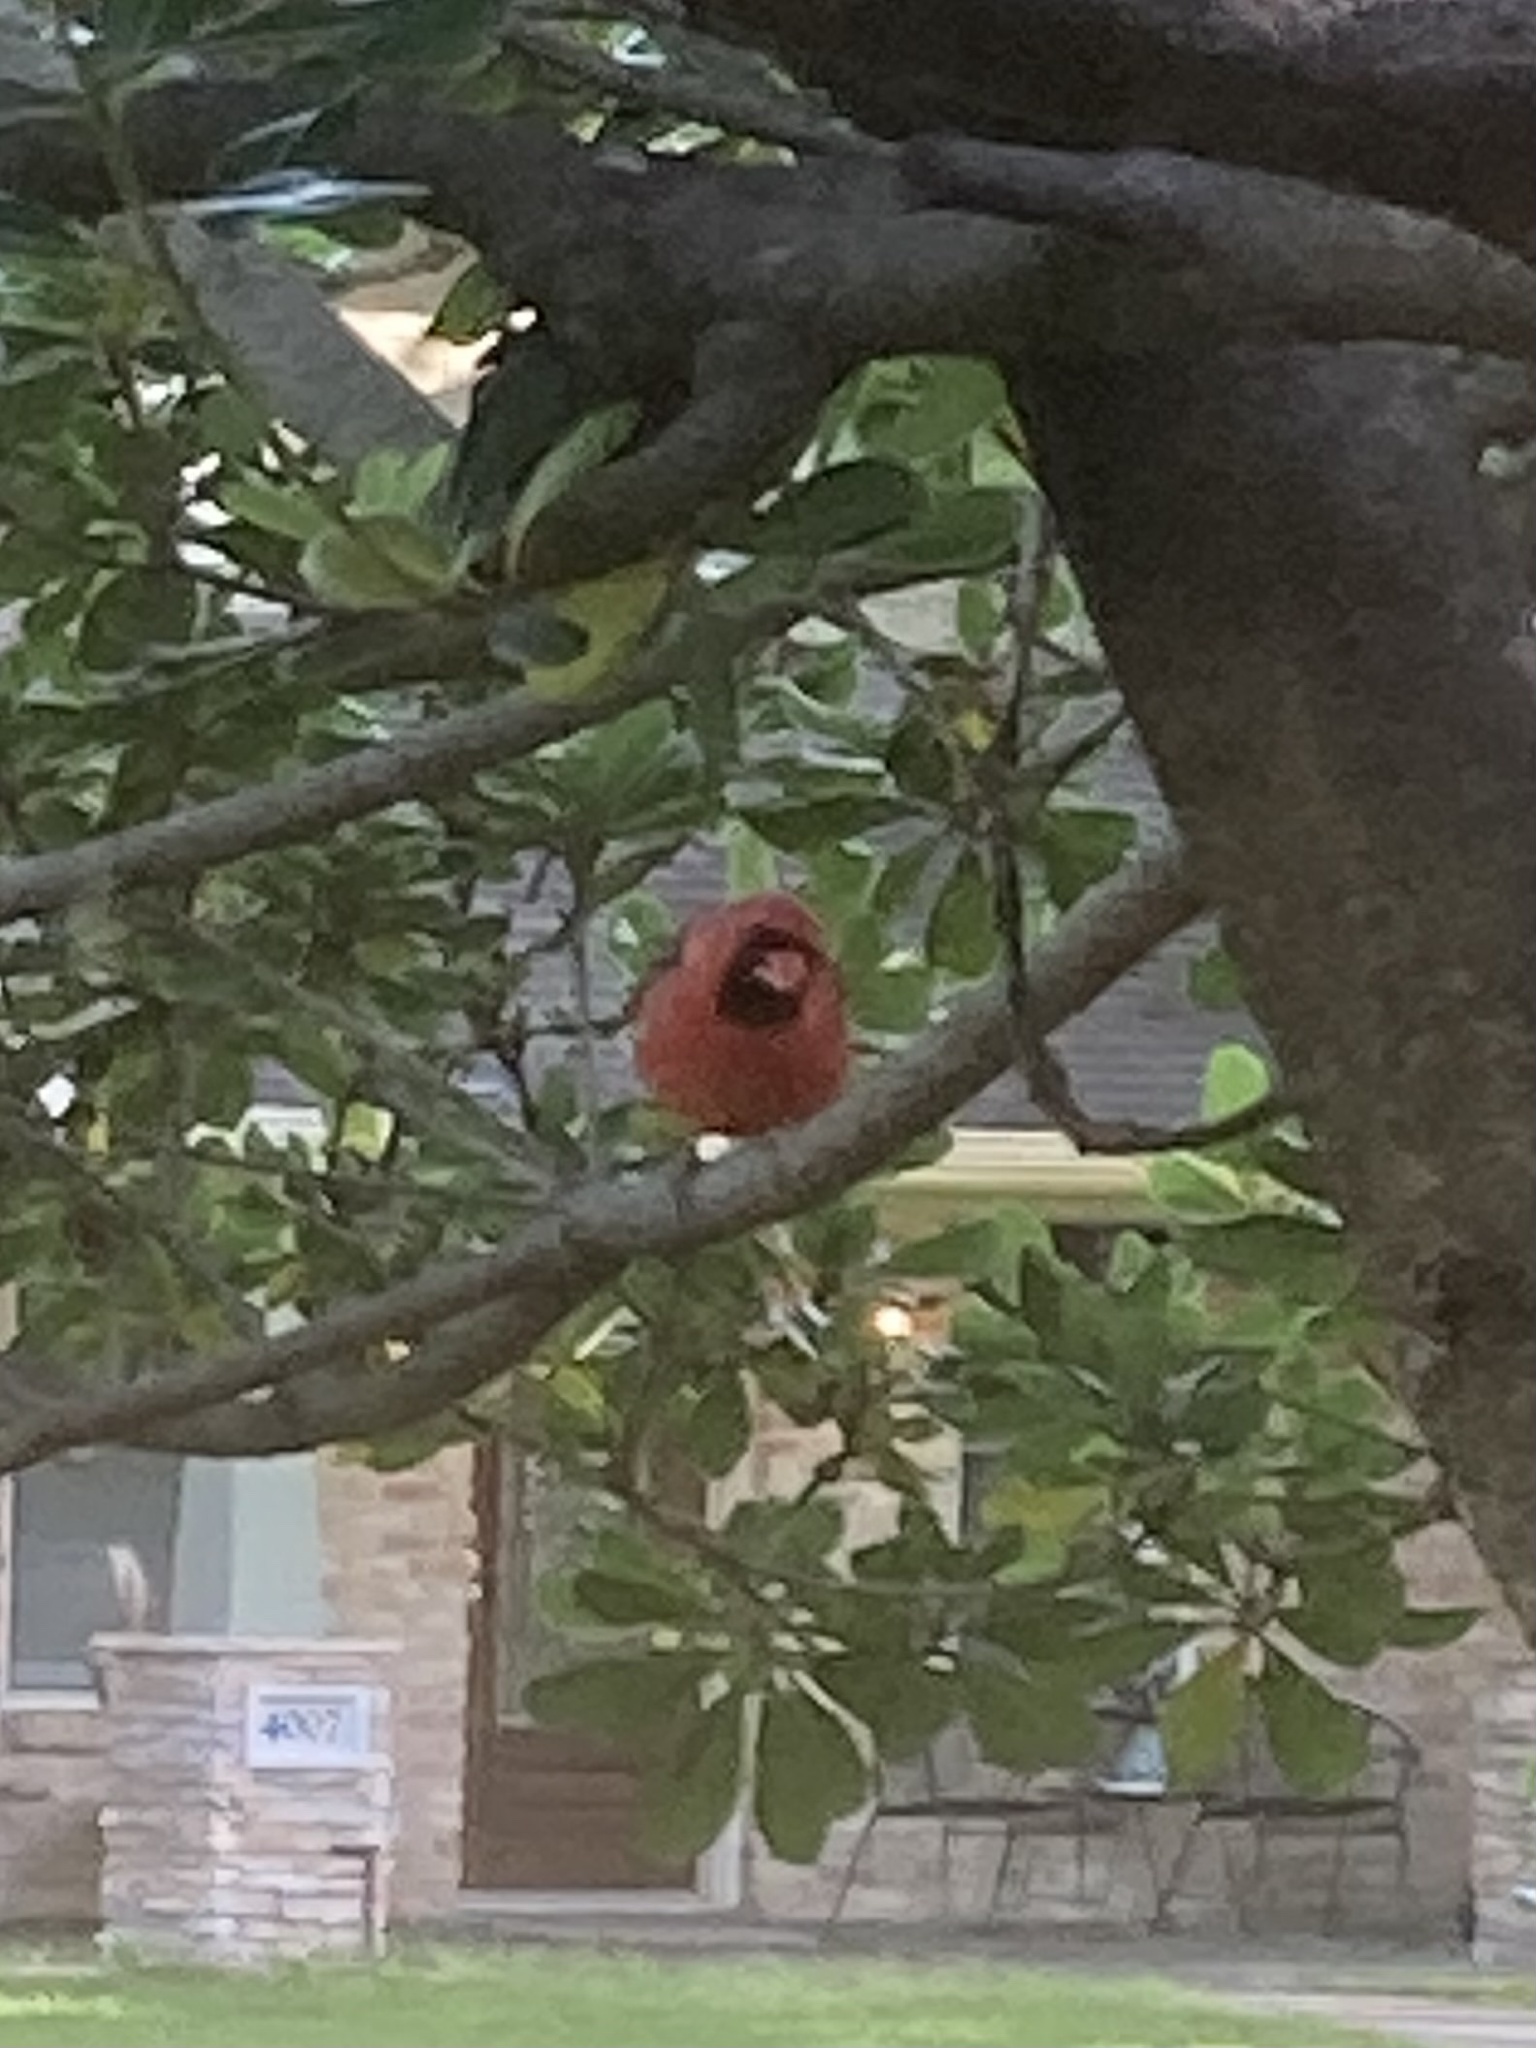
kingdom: Animalia
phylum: Chordata
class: Aves
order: Passeriformes
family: Cardinalidae
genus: Cardinalis
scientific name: Cardinalis cardinalis
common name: Northern cardinal
